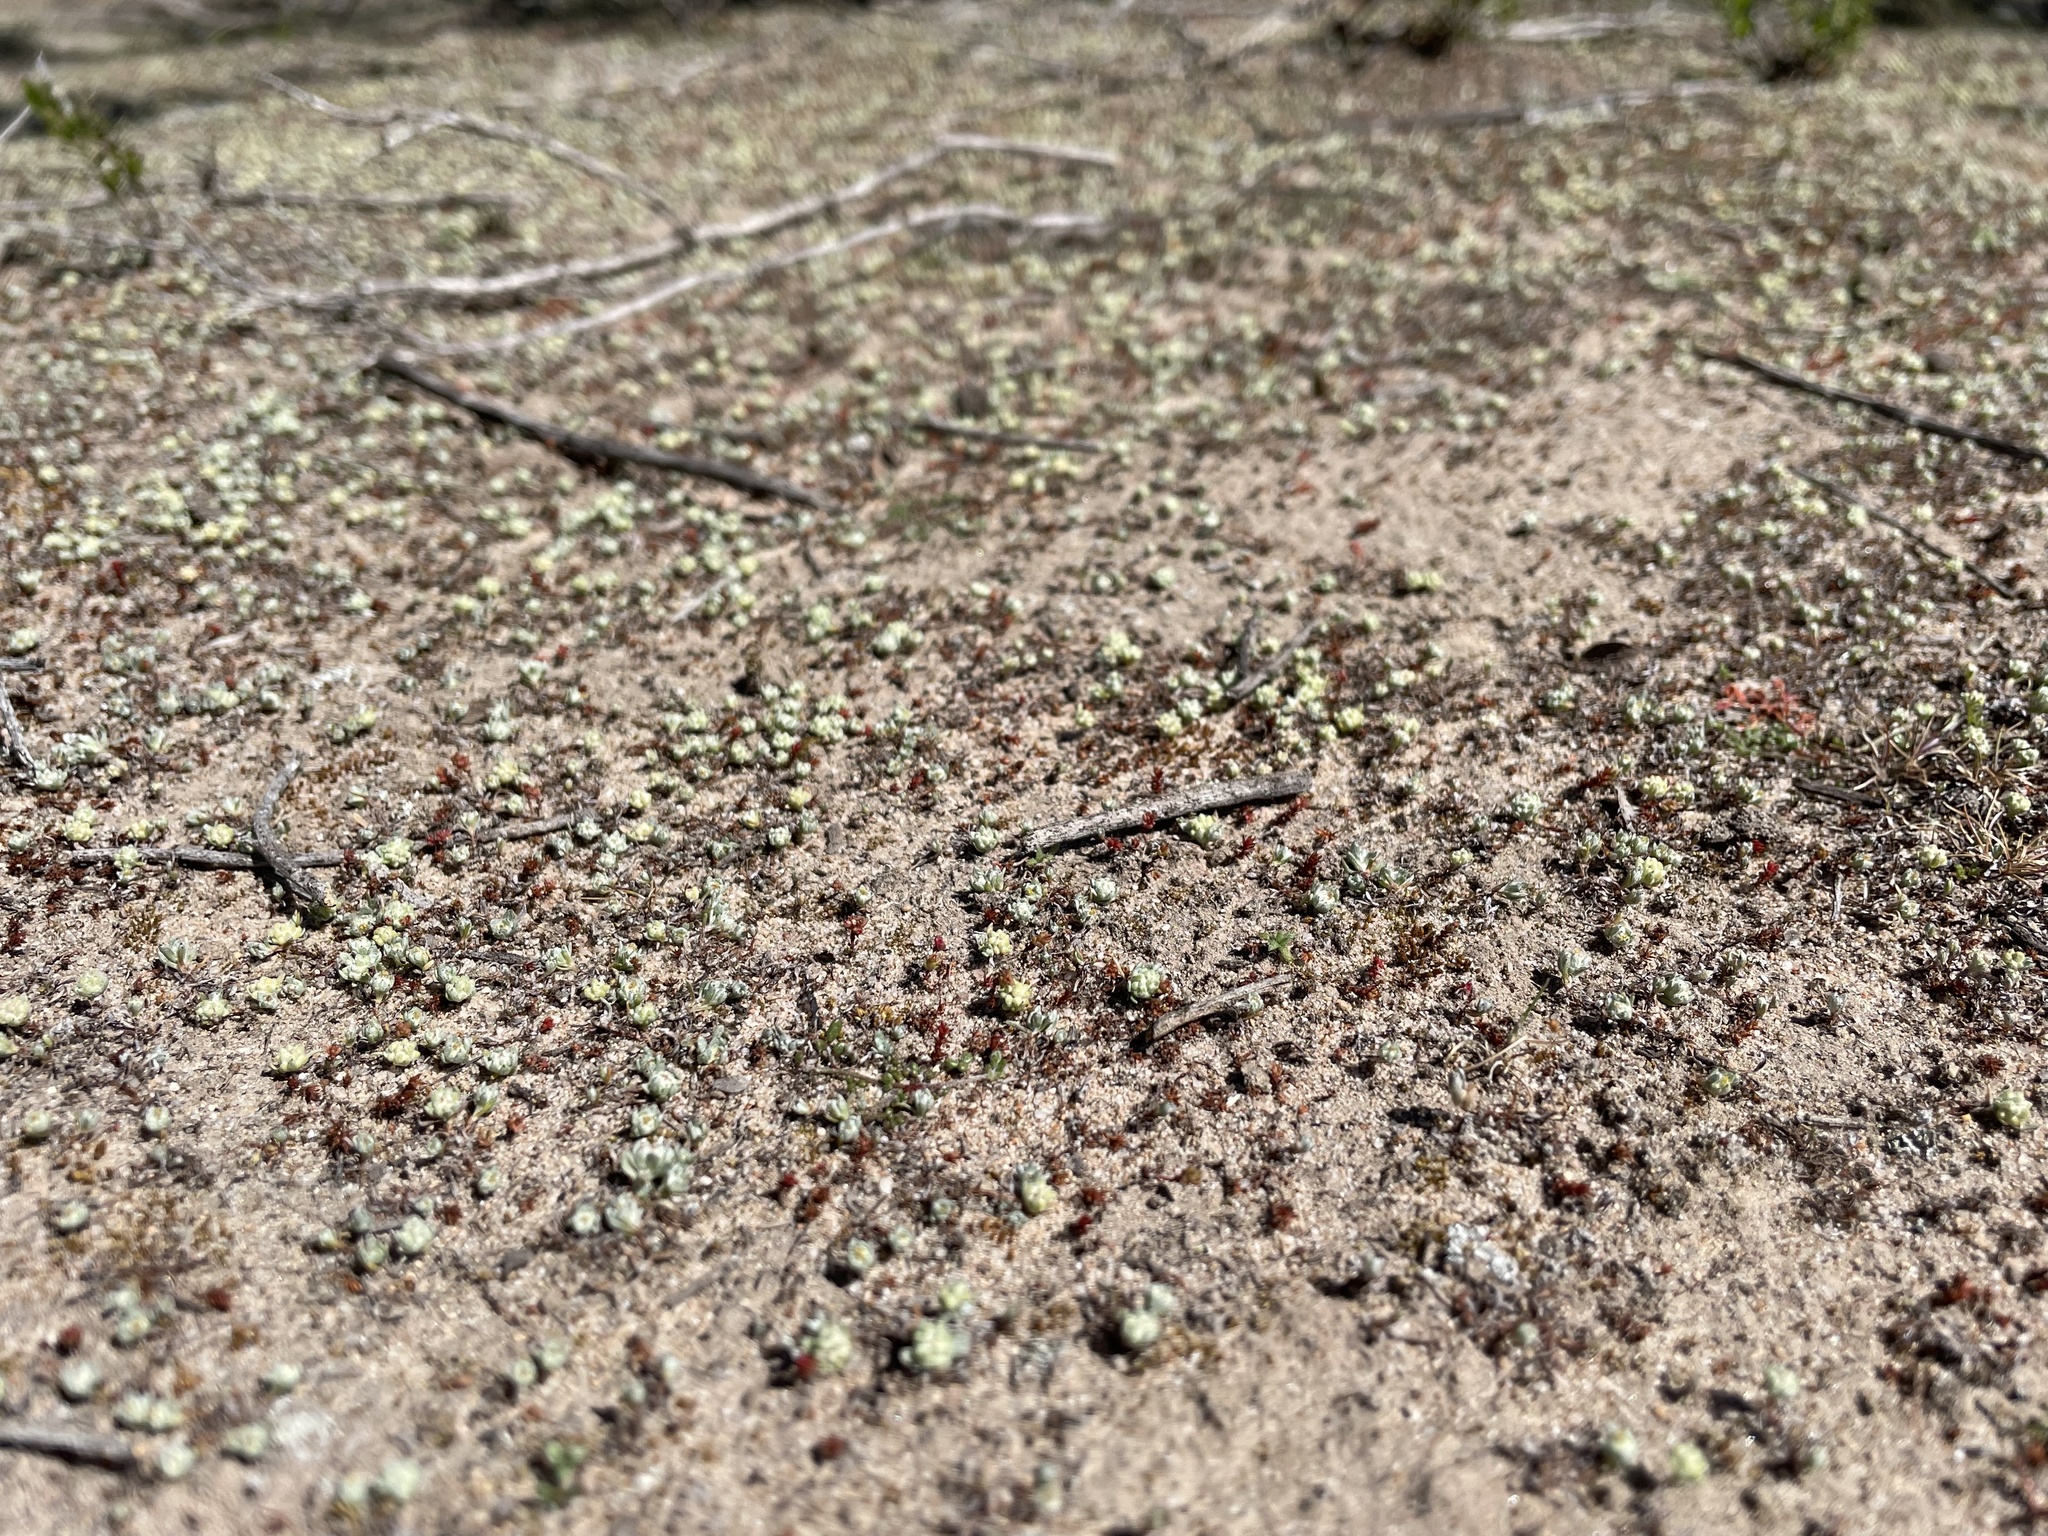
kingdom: Plantae
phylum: Tracheophyta
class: Magnoliopsida
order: Asterales
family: Asteraceae
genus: Psilocarphus
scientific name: Psilocarphus tenellus
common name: Slender woolly-marbles
